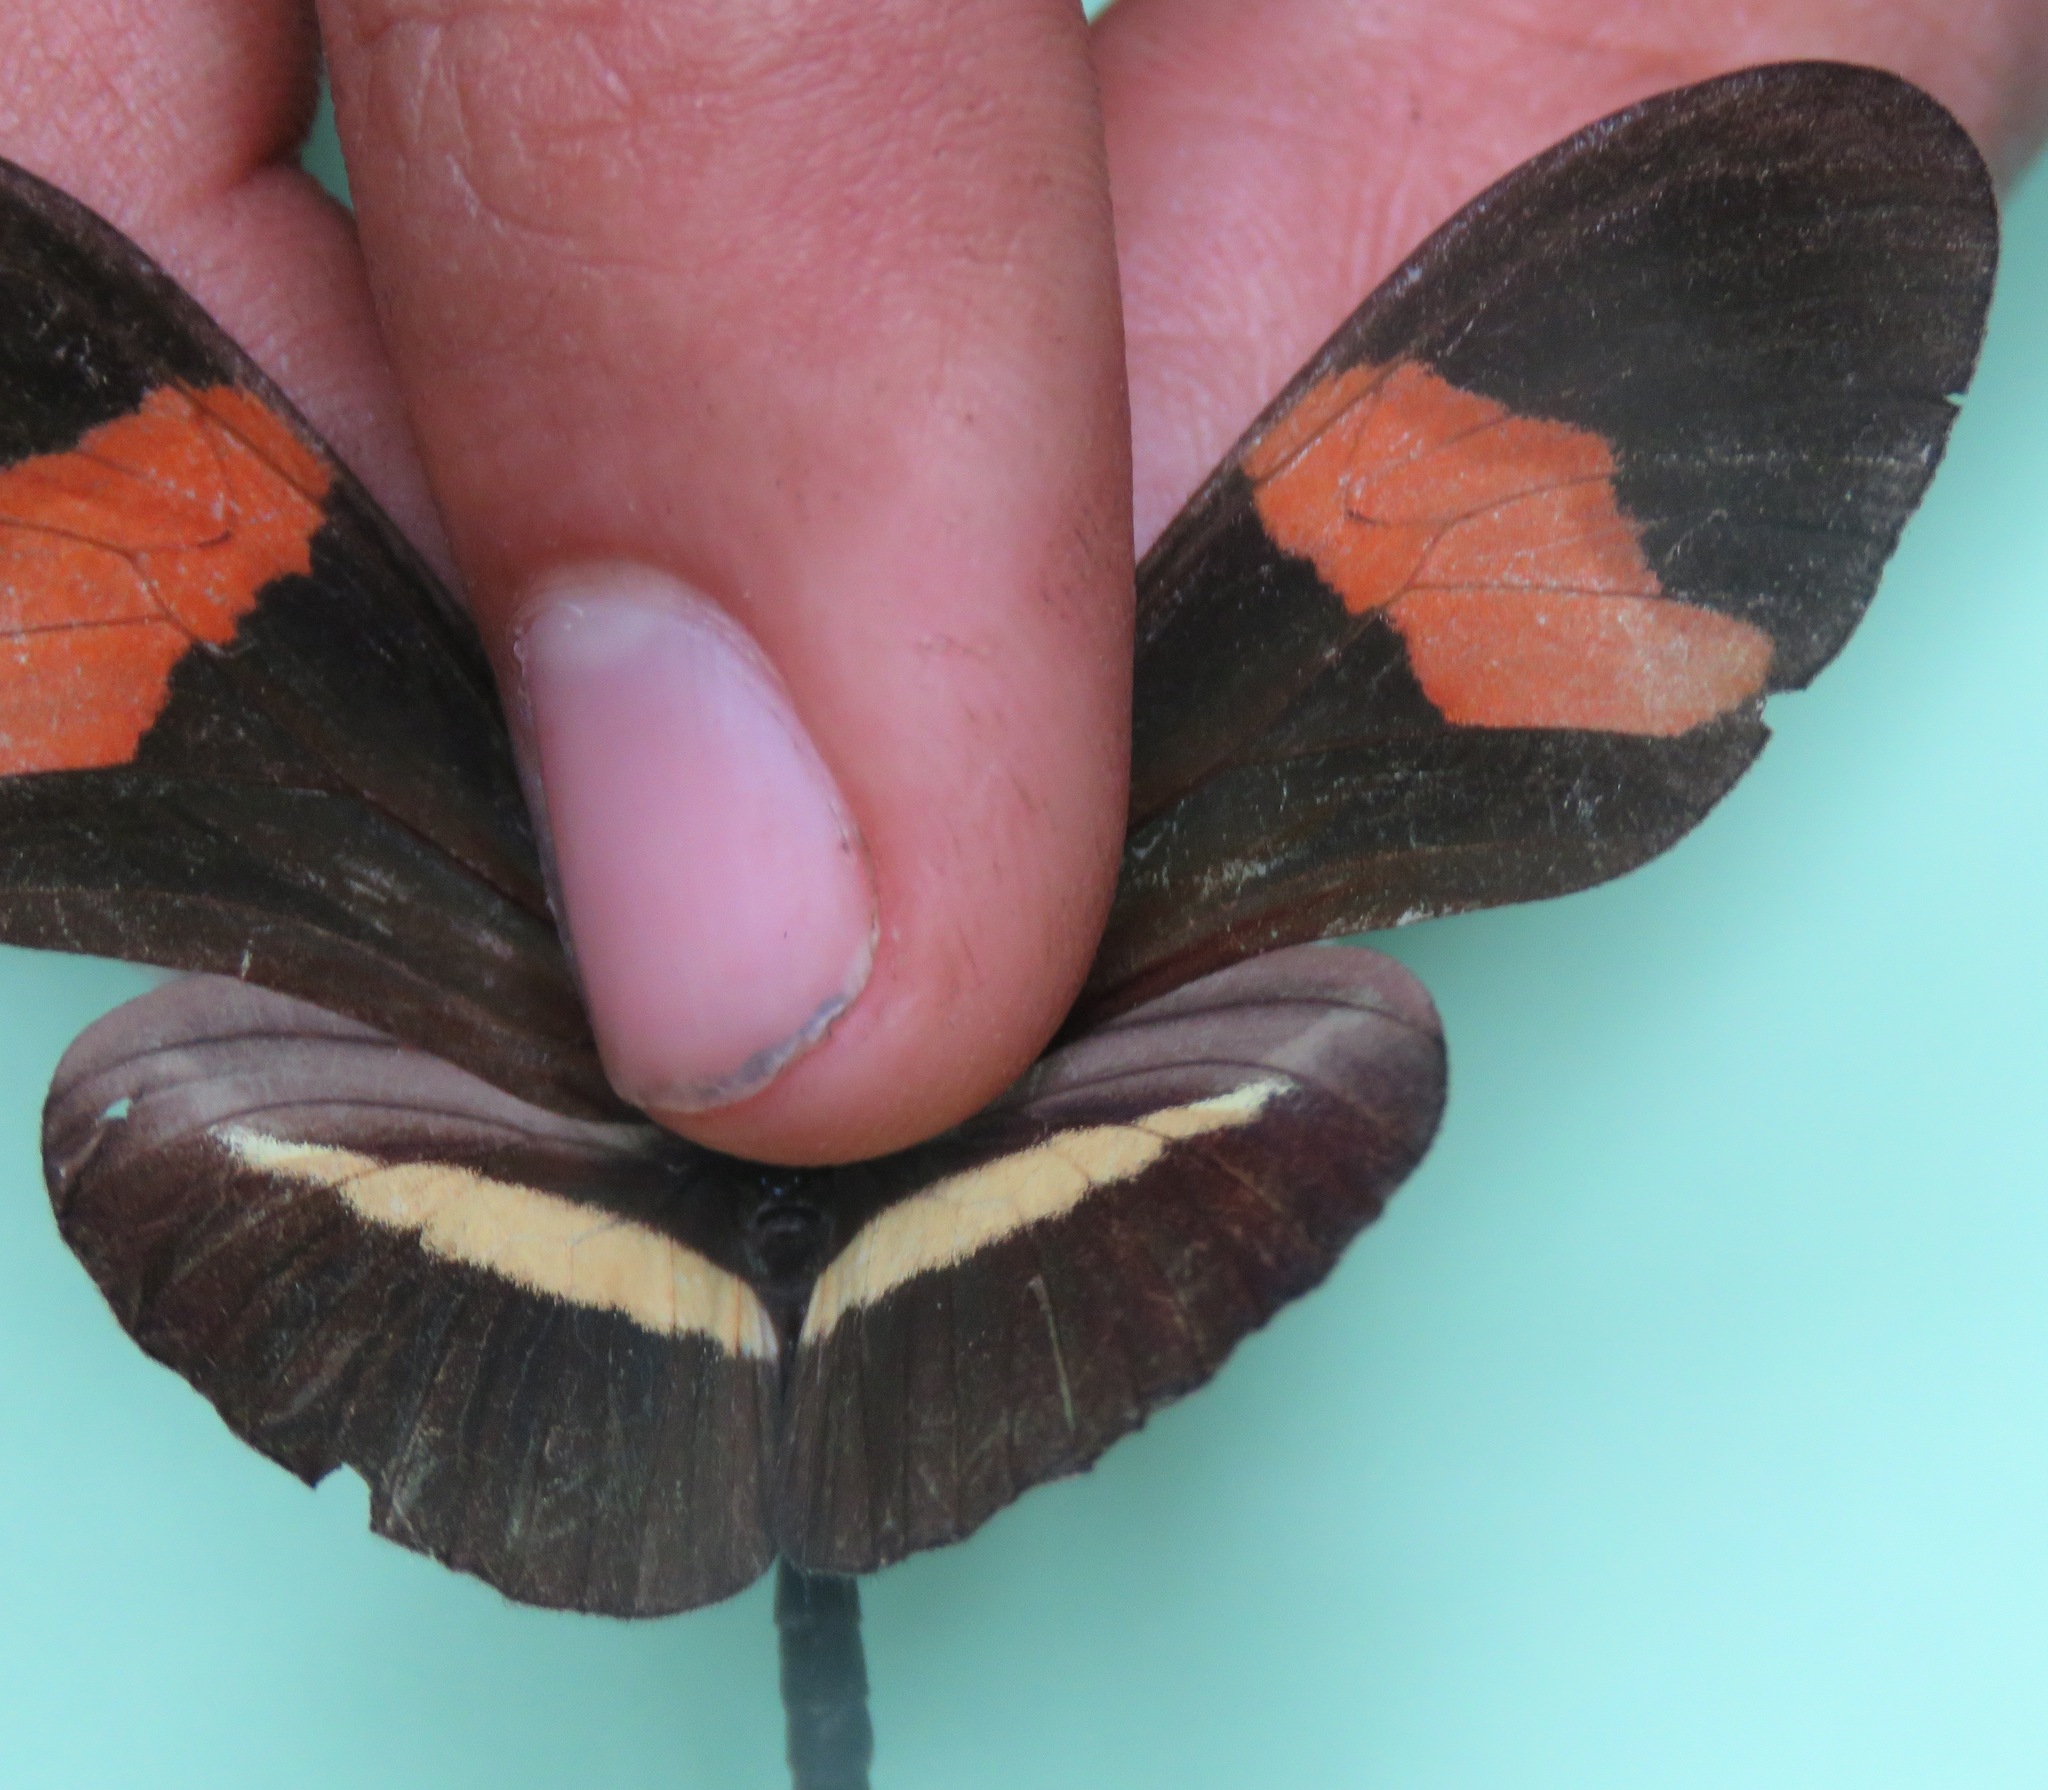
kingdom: Animalia
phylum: Arthropoda
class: Insecta
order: Lepidoptera
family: Nymphalidae
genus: Tirumala
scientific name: Tirumala petiverana
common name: Blue monarch
